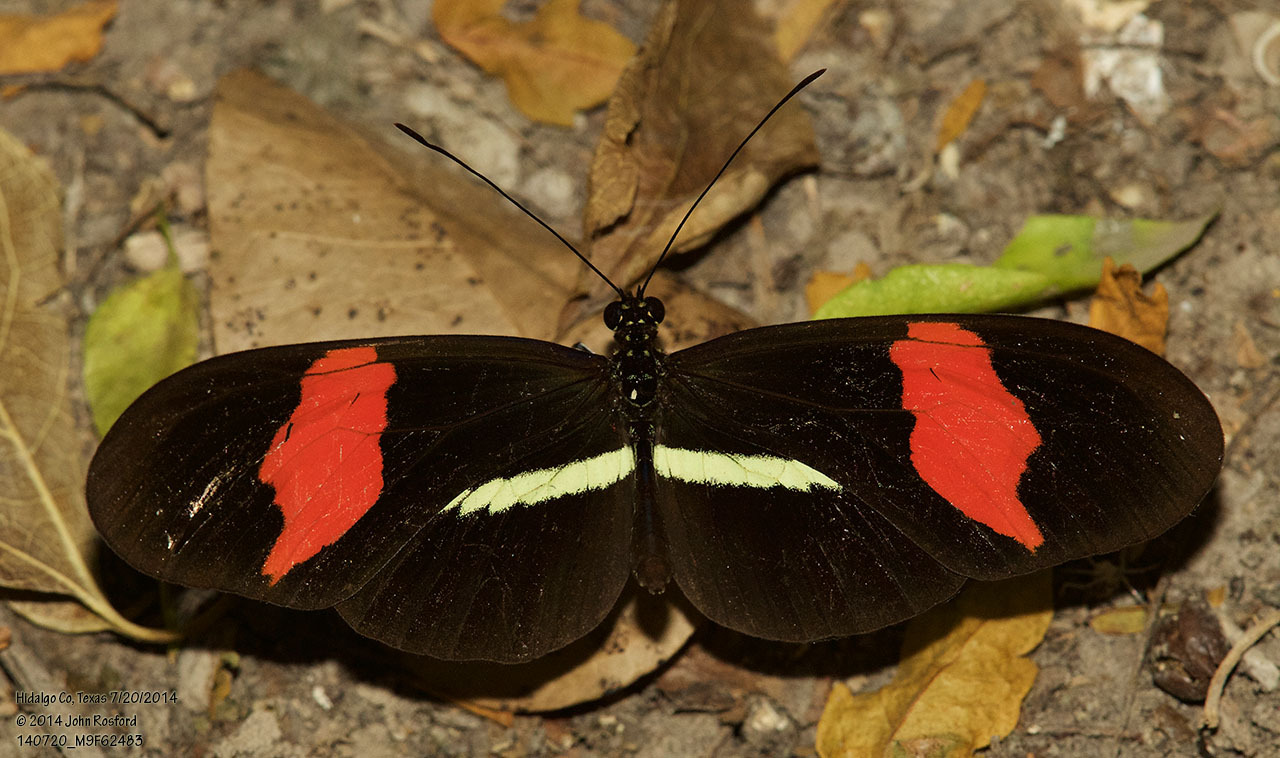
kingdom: Animalia
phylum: Arthropoda
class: Insecta
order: Lepidoptera
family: Nymphalidae
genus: Tirumala
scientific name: Tirumala petiverana
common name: Blue monarch
